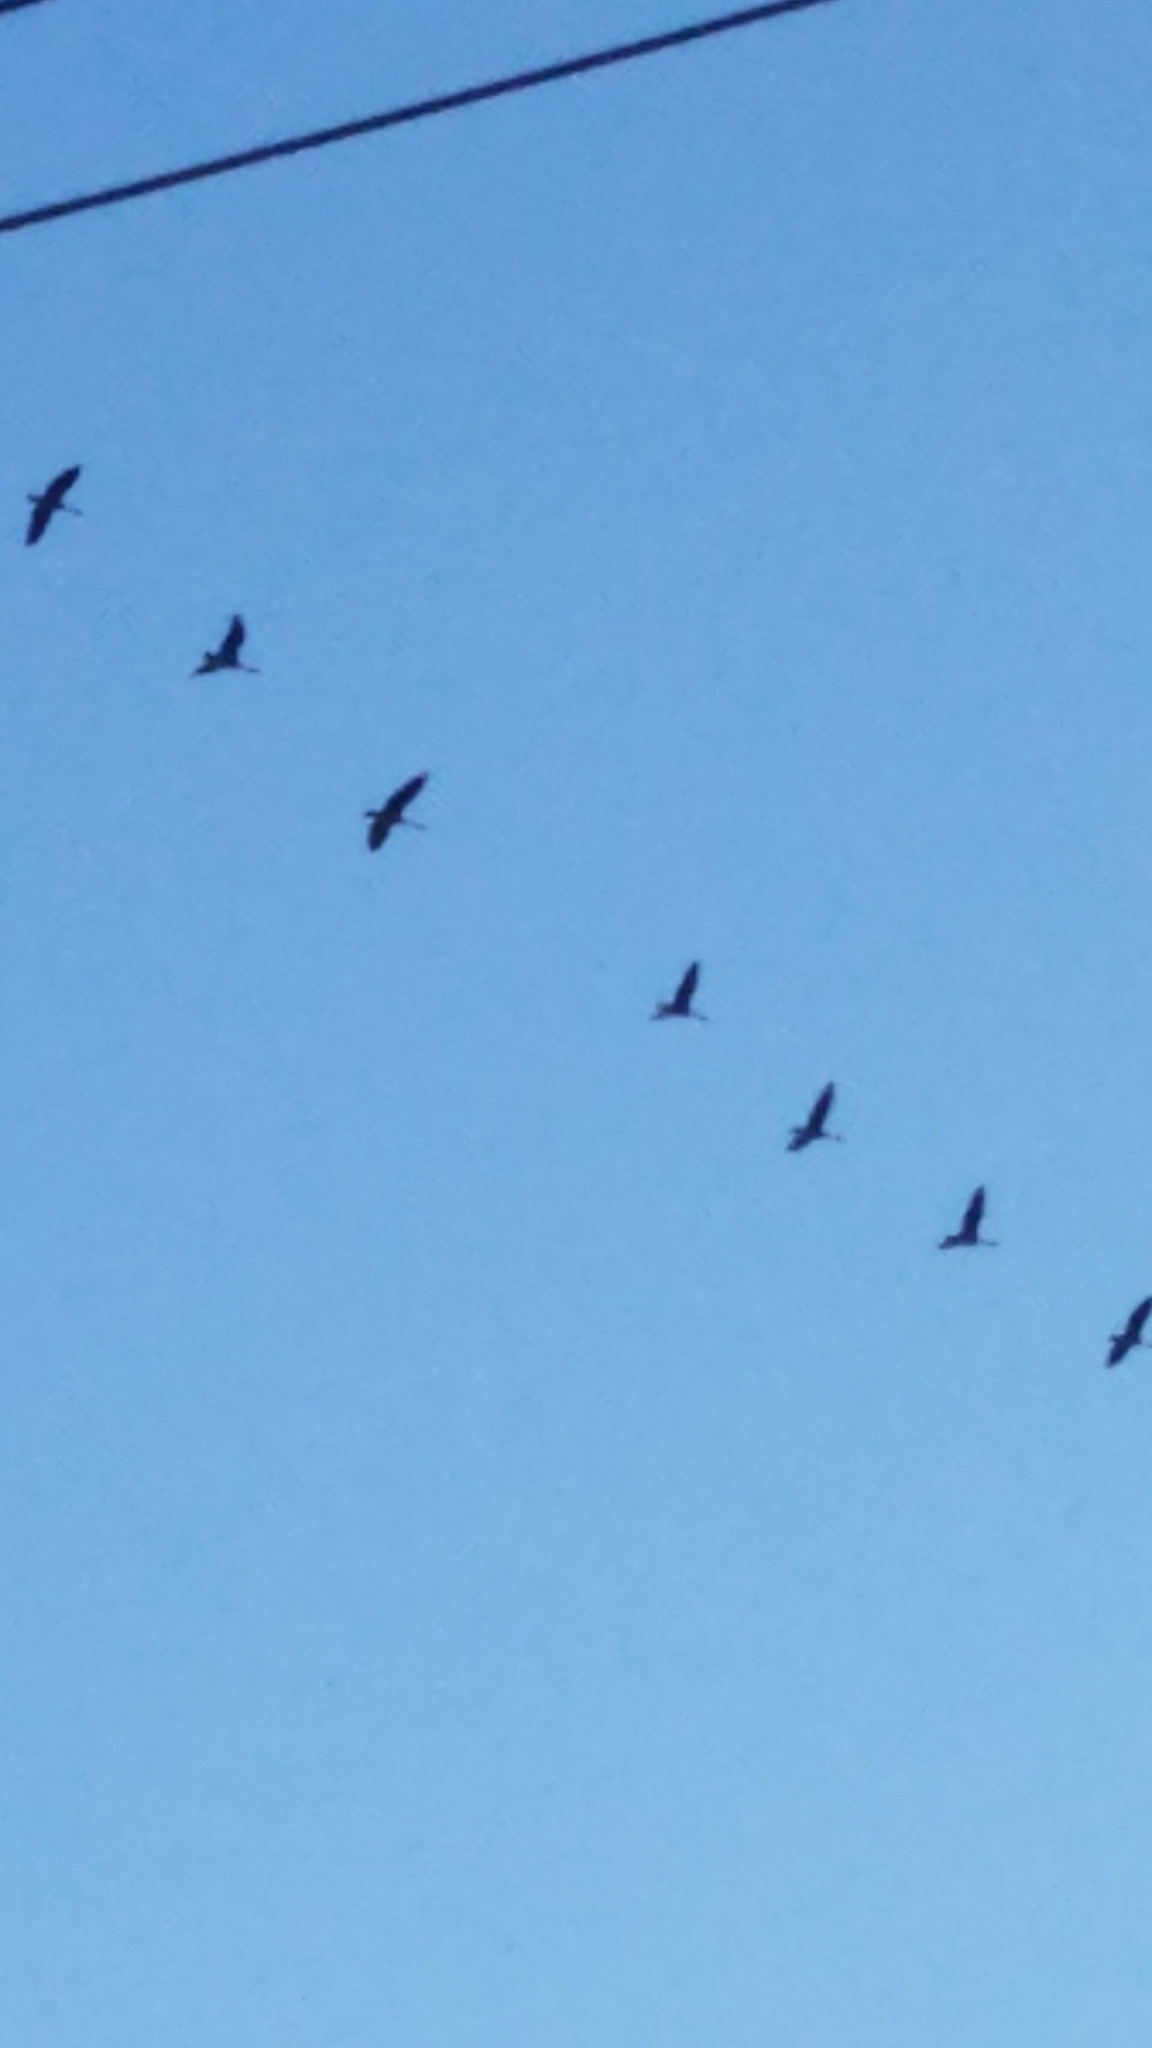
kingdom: Animalia
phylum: Chordata
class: Aves
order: Anseriformes
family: Anatidae
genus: Branta
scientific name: Branta canadensis
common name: Canada goose
